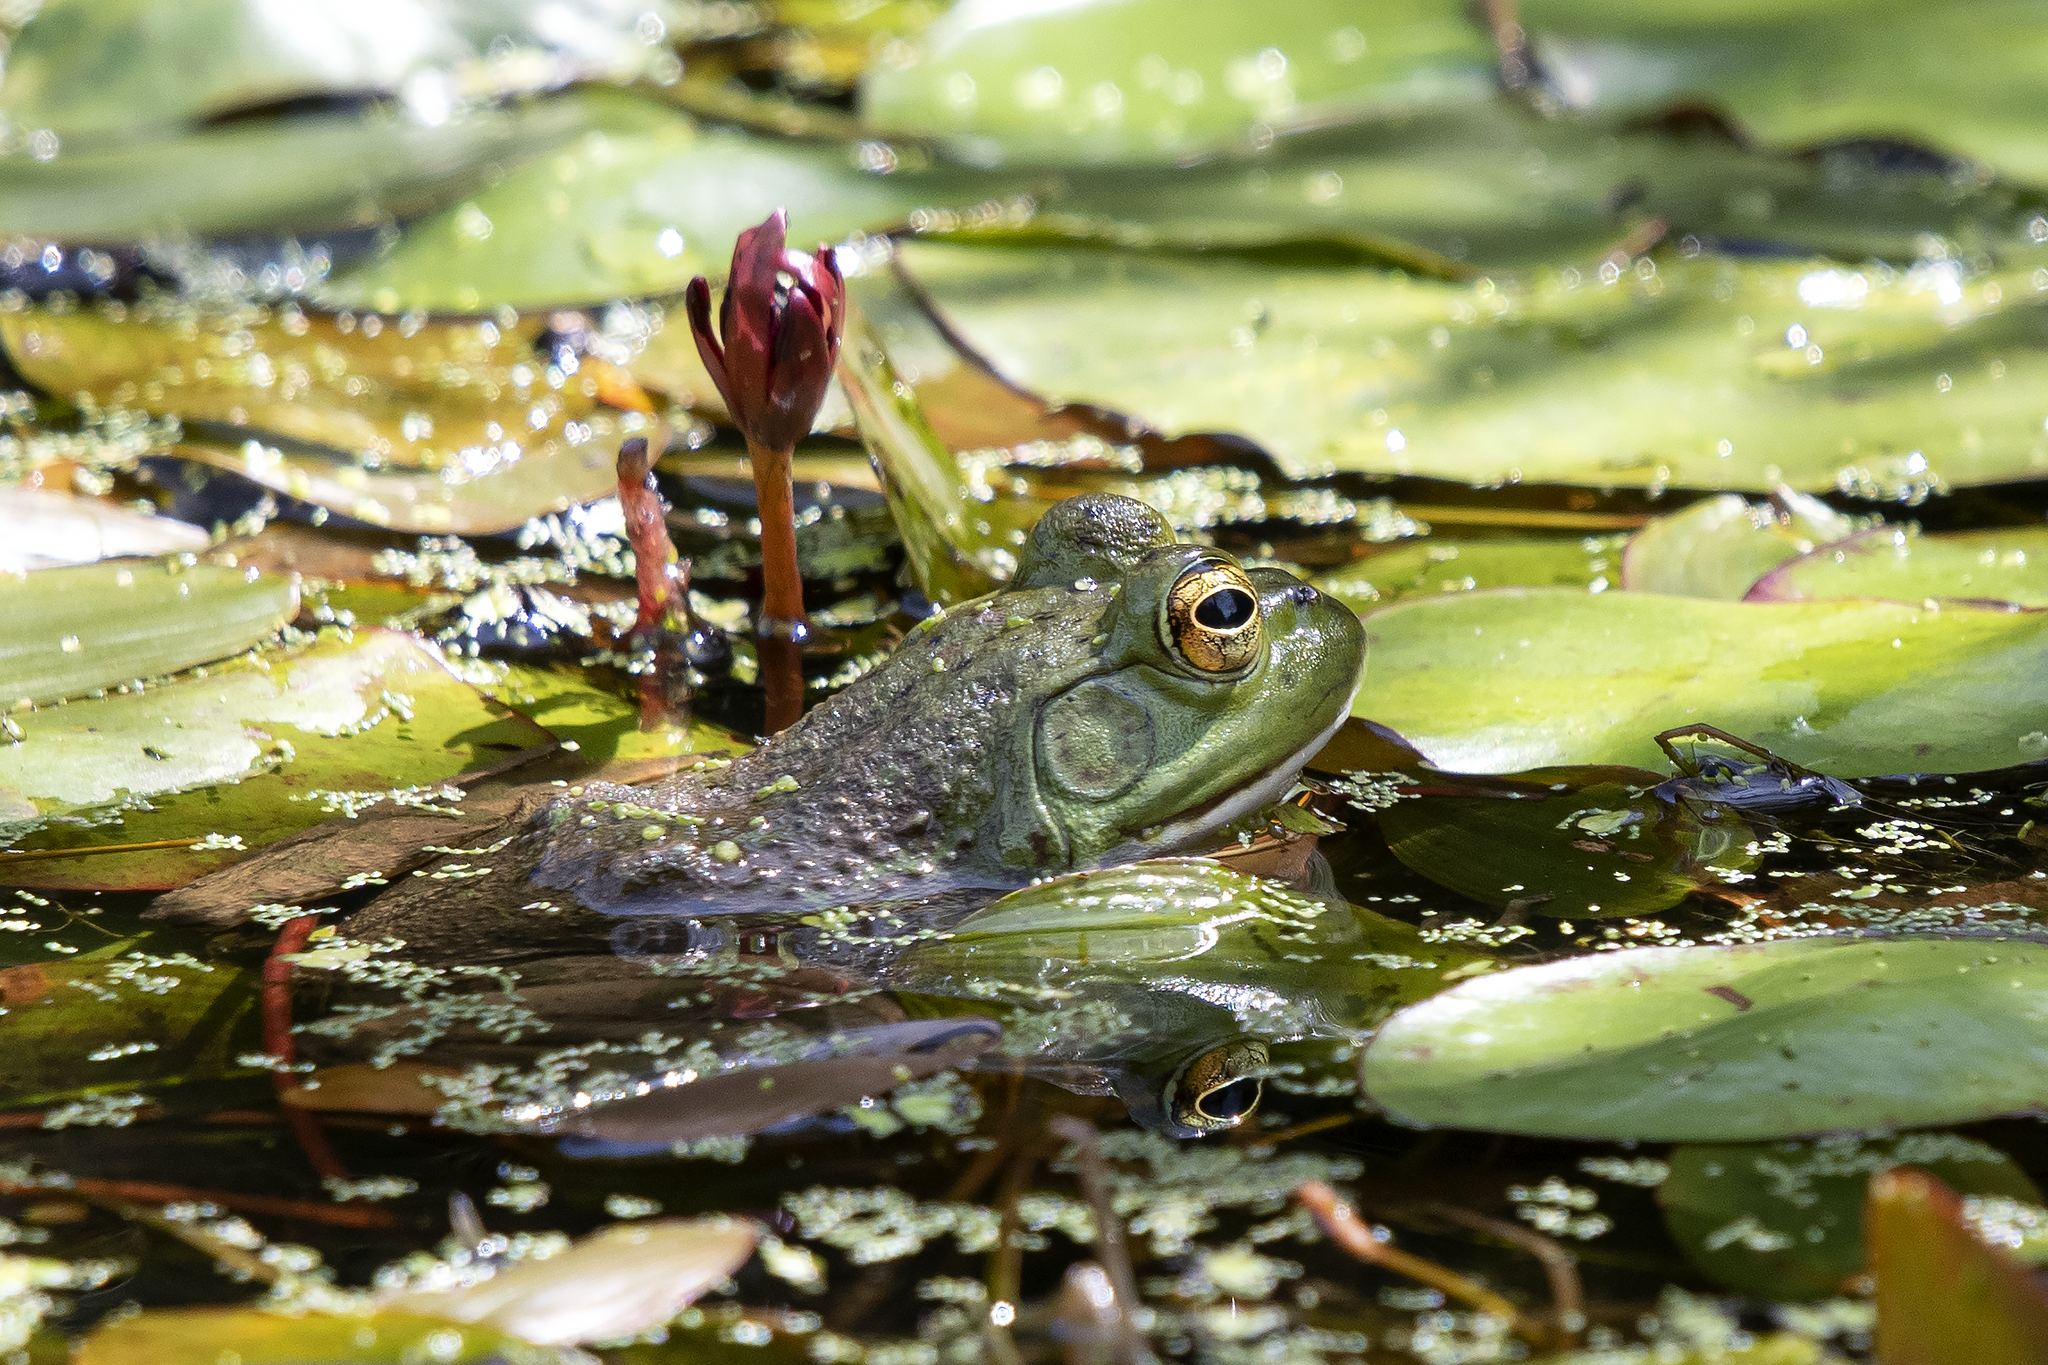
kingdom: Animalia
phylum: Chordata
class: Amphibia
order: Anura
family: Ranidae
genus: Lithobates
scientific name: Lithobates catesbeianus
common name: American bullfrog
